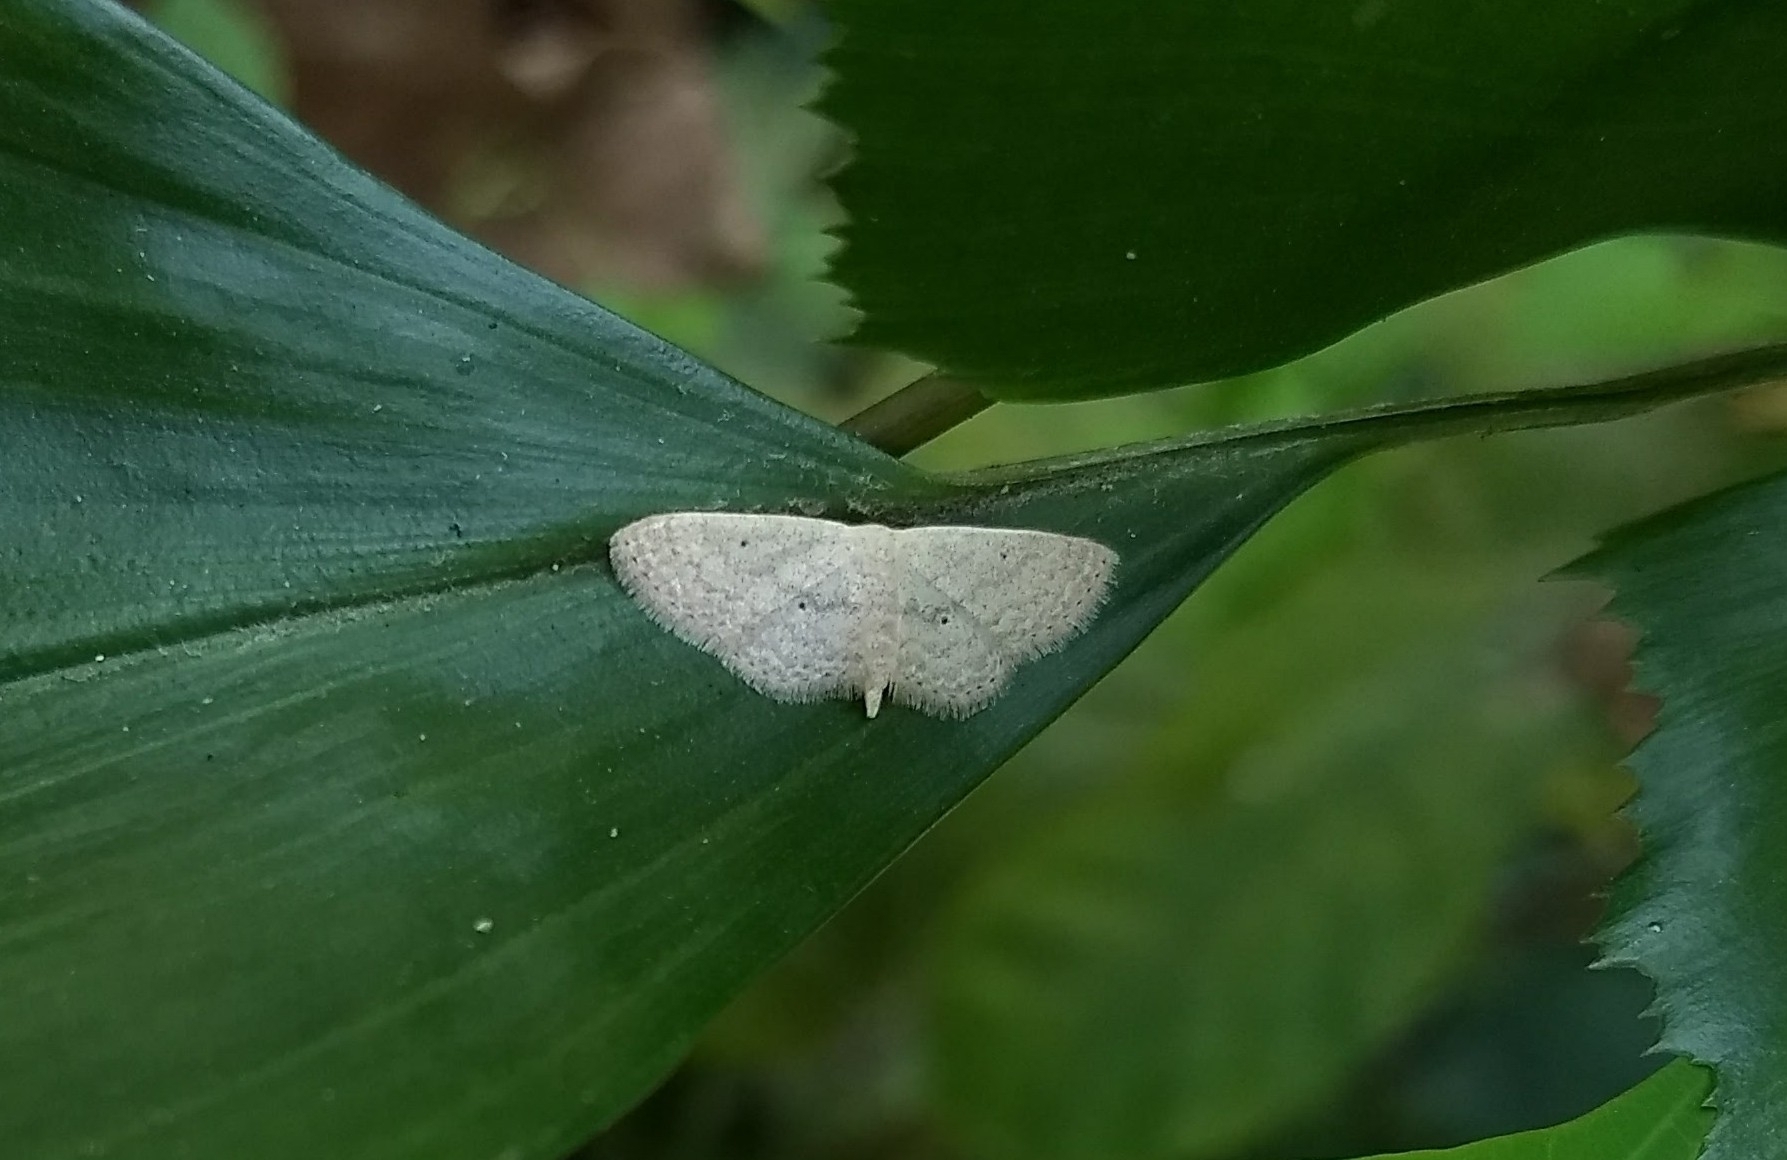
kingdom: Animalia
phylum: Arthropoda
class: Insecta
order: Lepidoptera
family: Geometridae
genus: Scopula
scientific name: Scopula minorata
